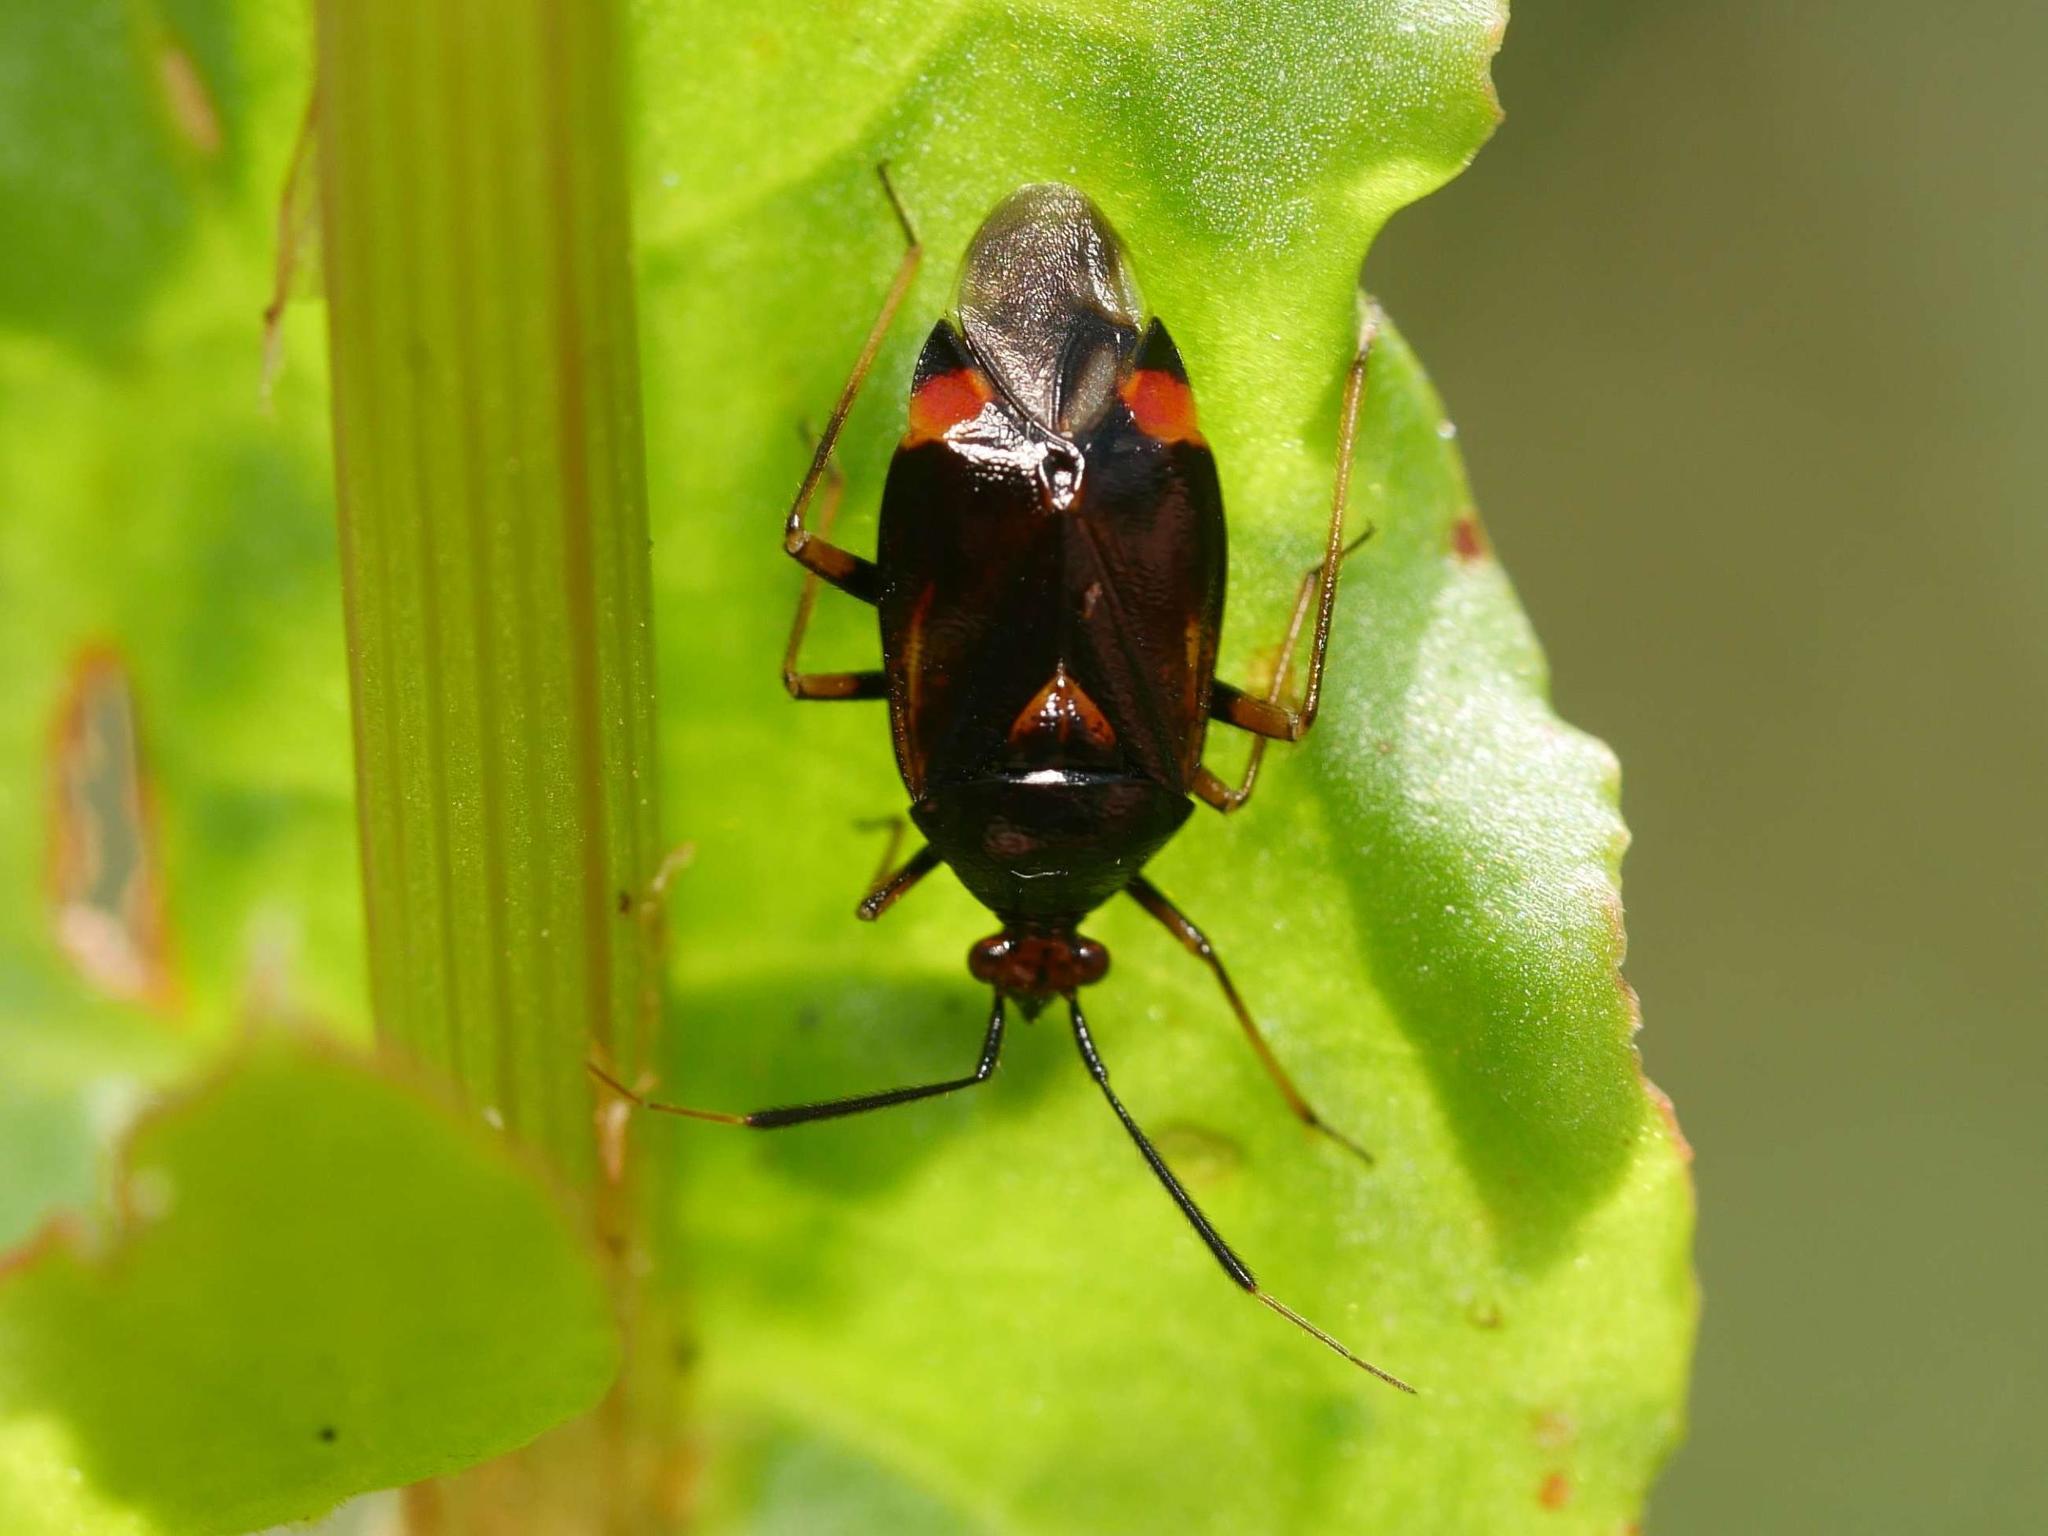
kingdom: Animalia
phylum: Arthropoda
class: Insecta
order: Hemiptera
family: Miridae
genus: Deraeocoris
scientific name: Deraeocoris ruber
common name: Plant bug
